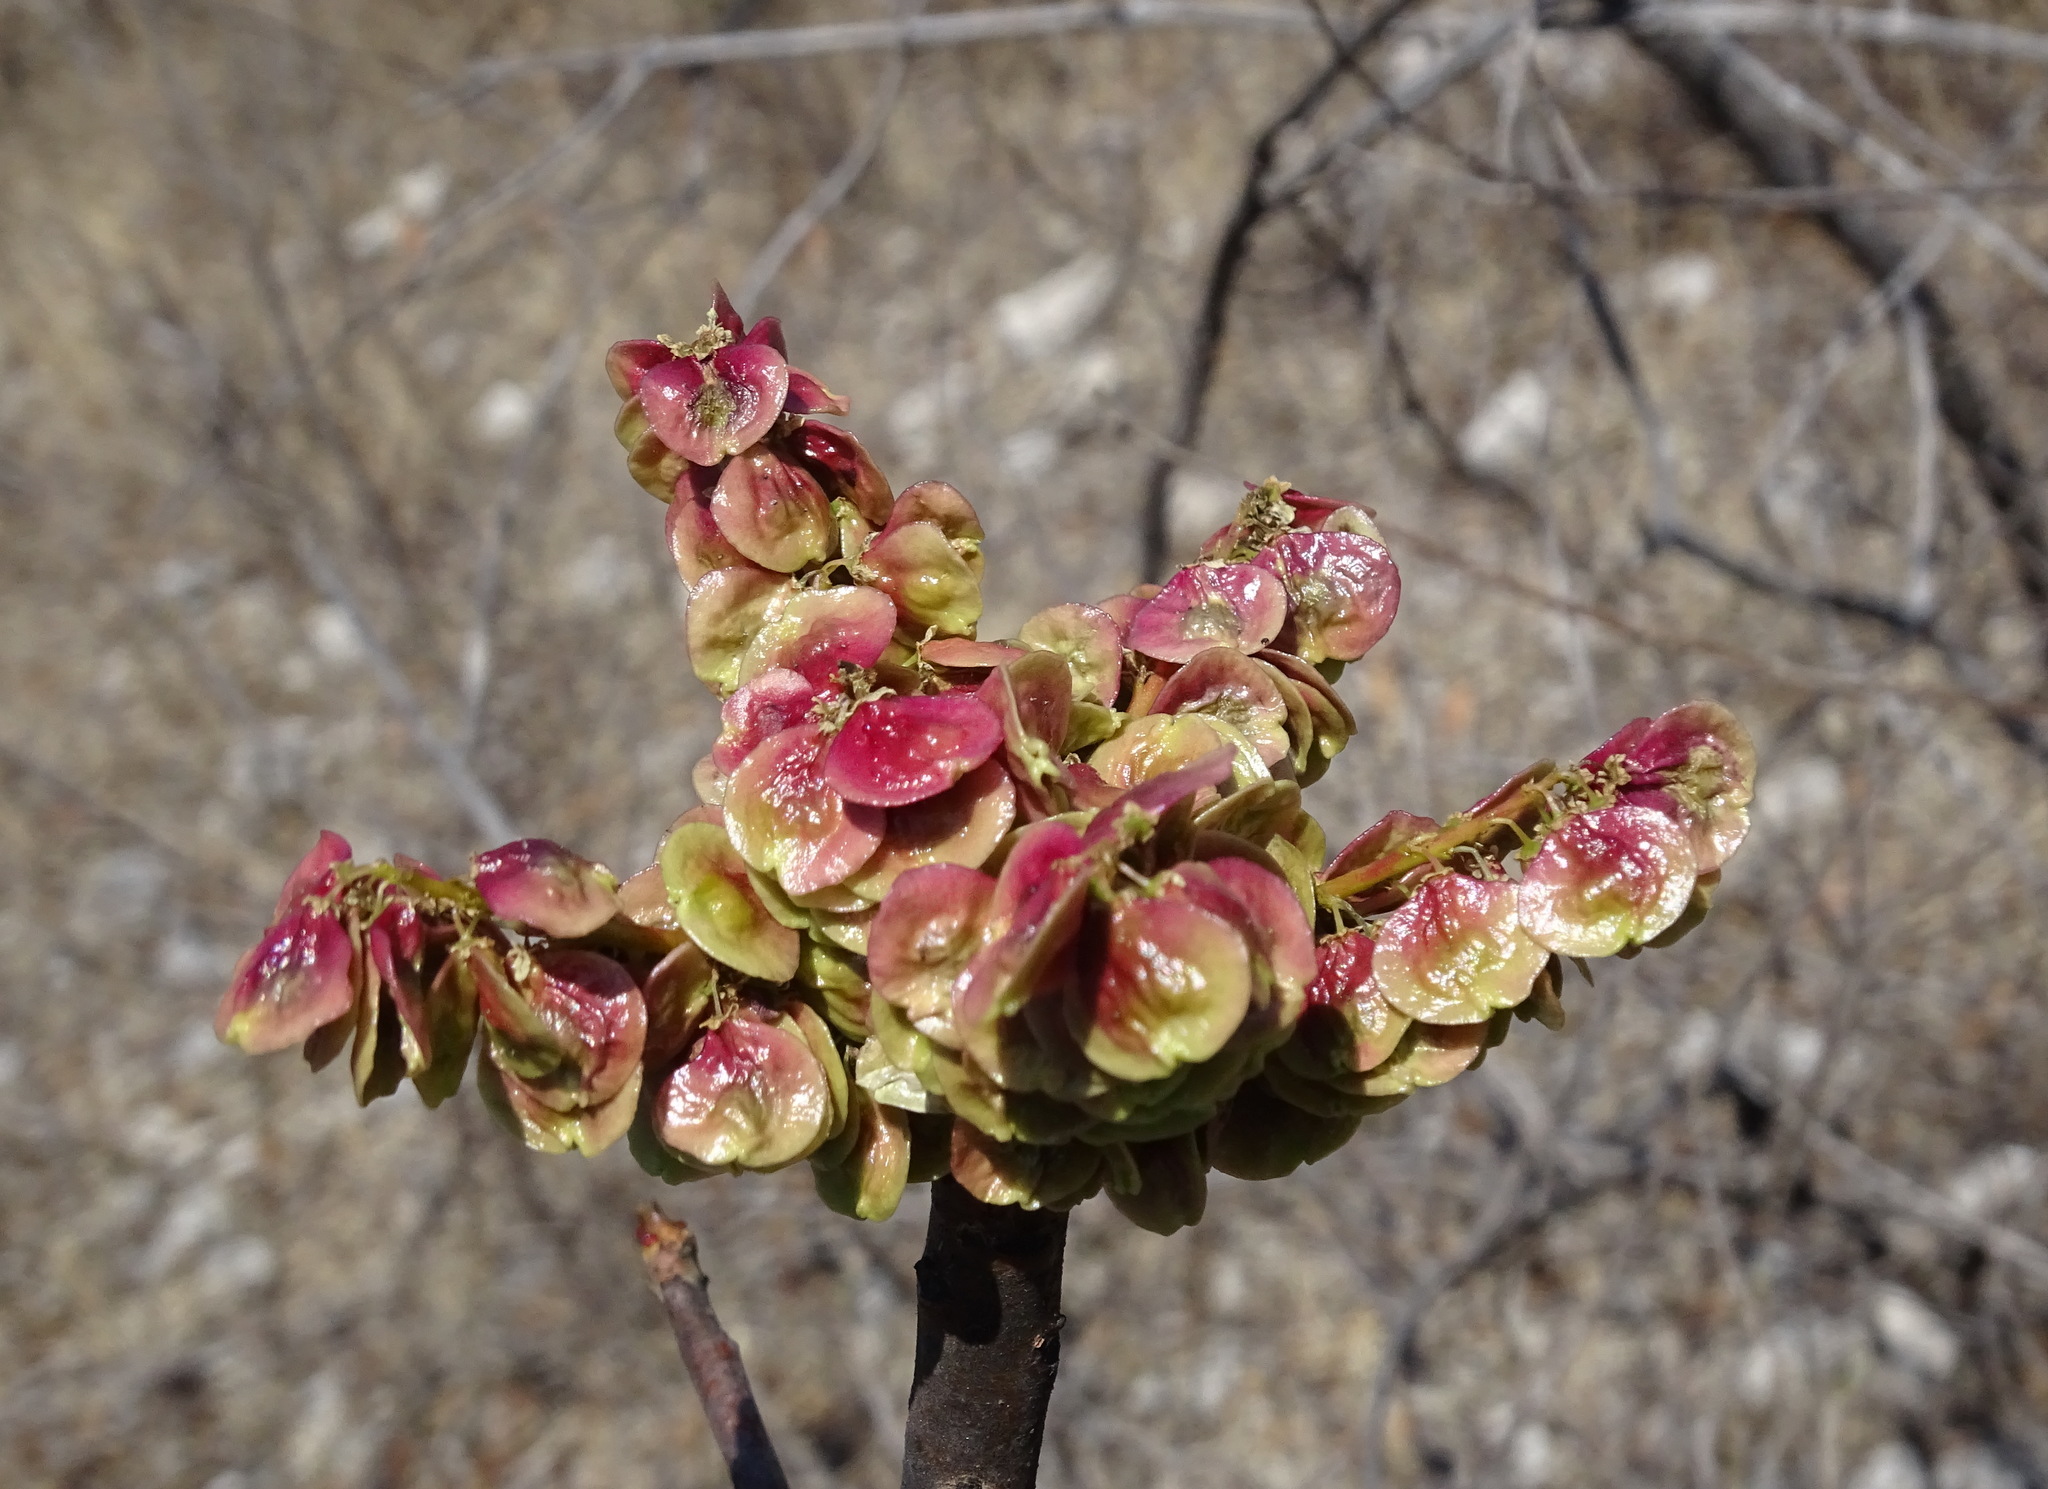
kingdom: Plantae
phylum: Tracheophyta
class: Magnoliopsida
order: Sapindales
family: Anacardiaceae
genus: Pseudosmodingium
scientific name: Pseudosmodingium andrieuxii
